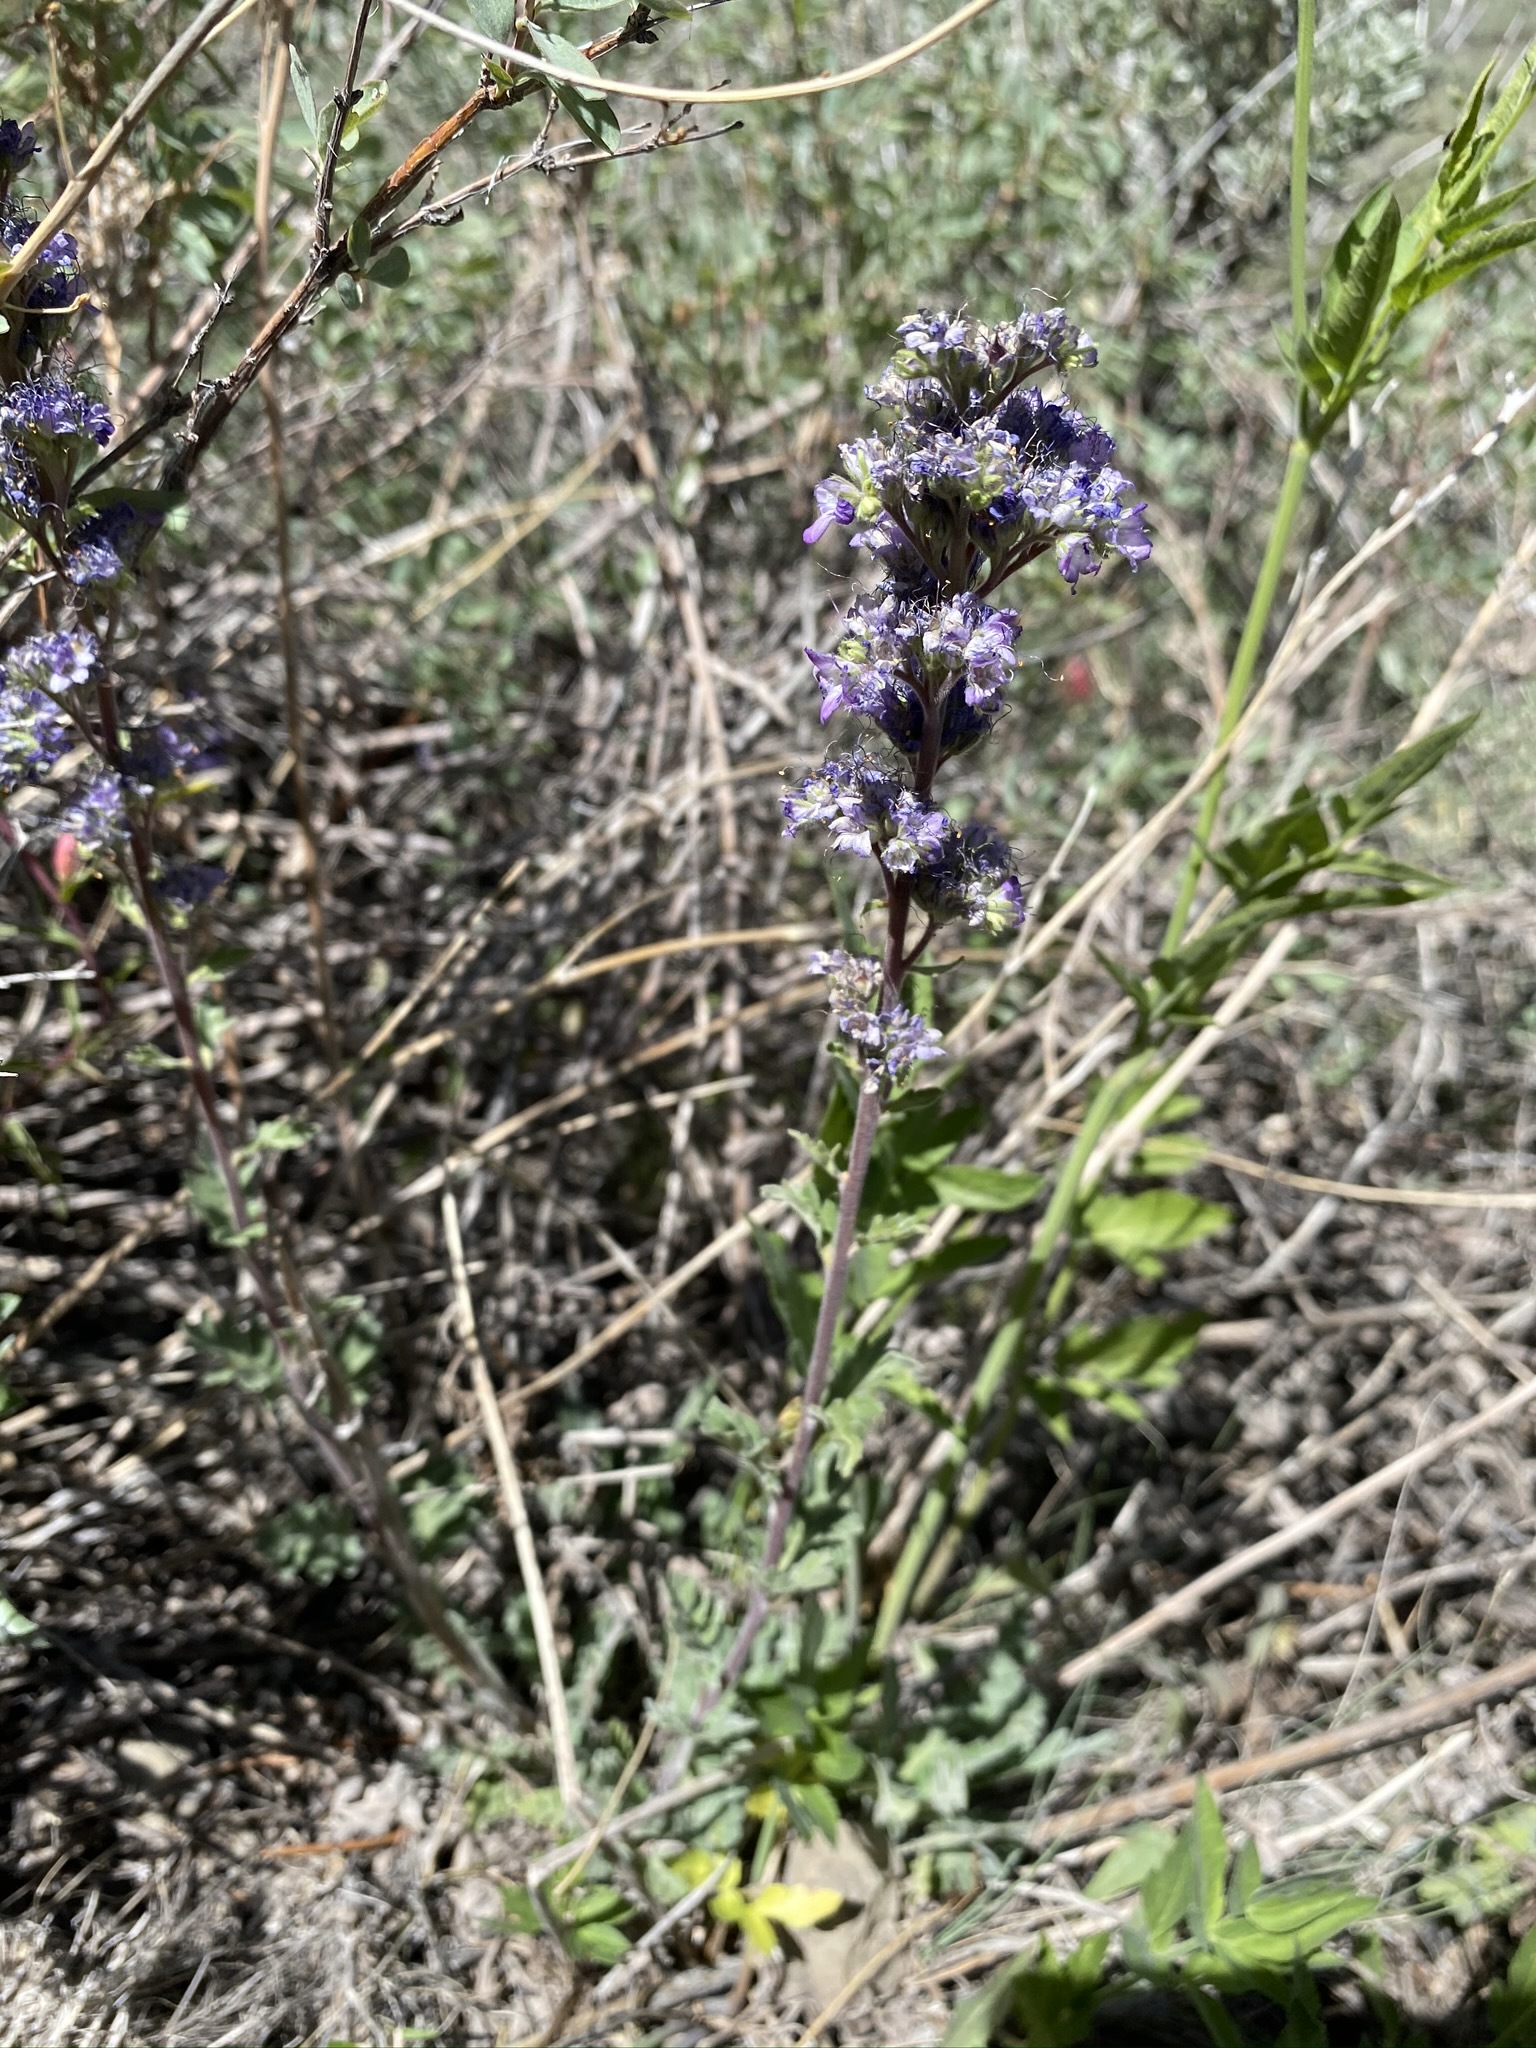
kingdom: Plantae
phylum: Tracheophyta
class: Magnoliopsida
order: Boraginales
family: Hydrophyllaceae
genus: Phacelia
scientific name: Phacelia sericea
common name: Silky phacelia
